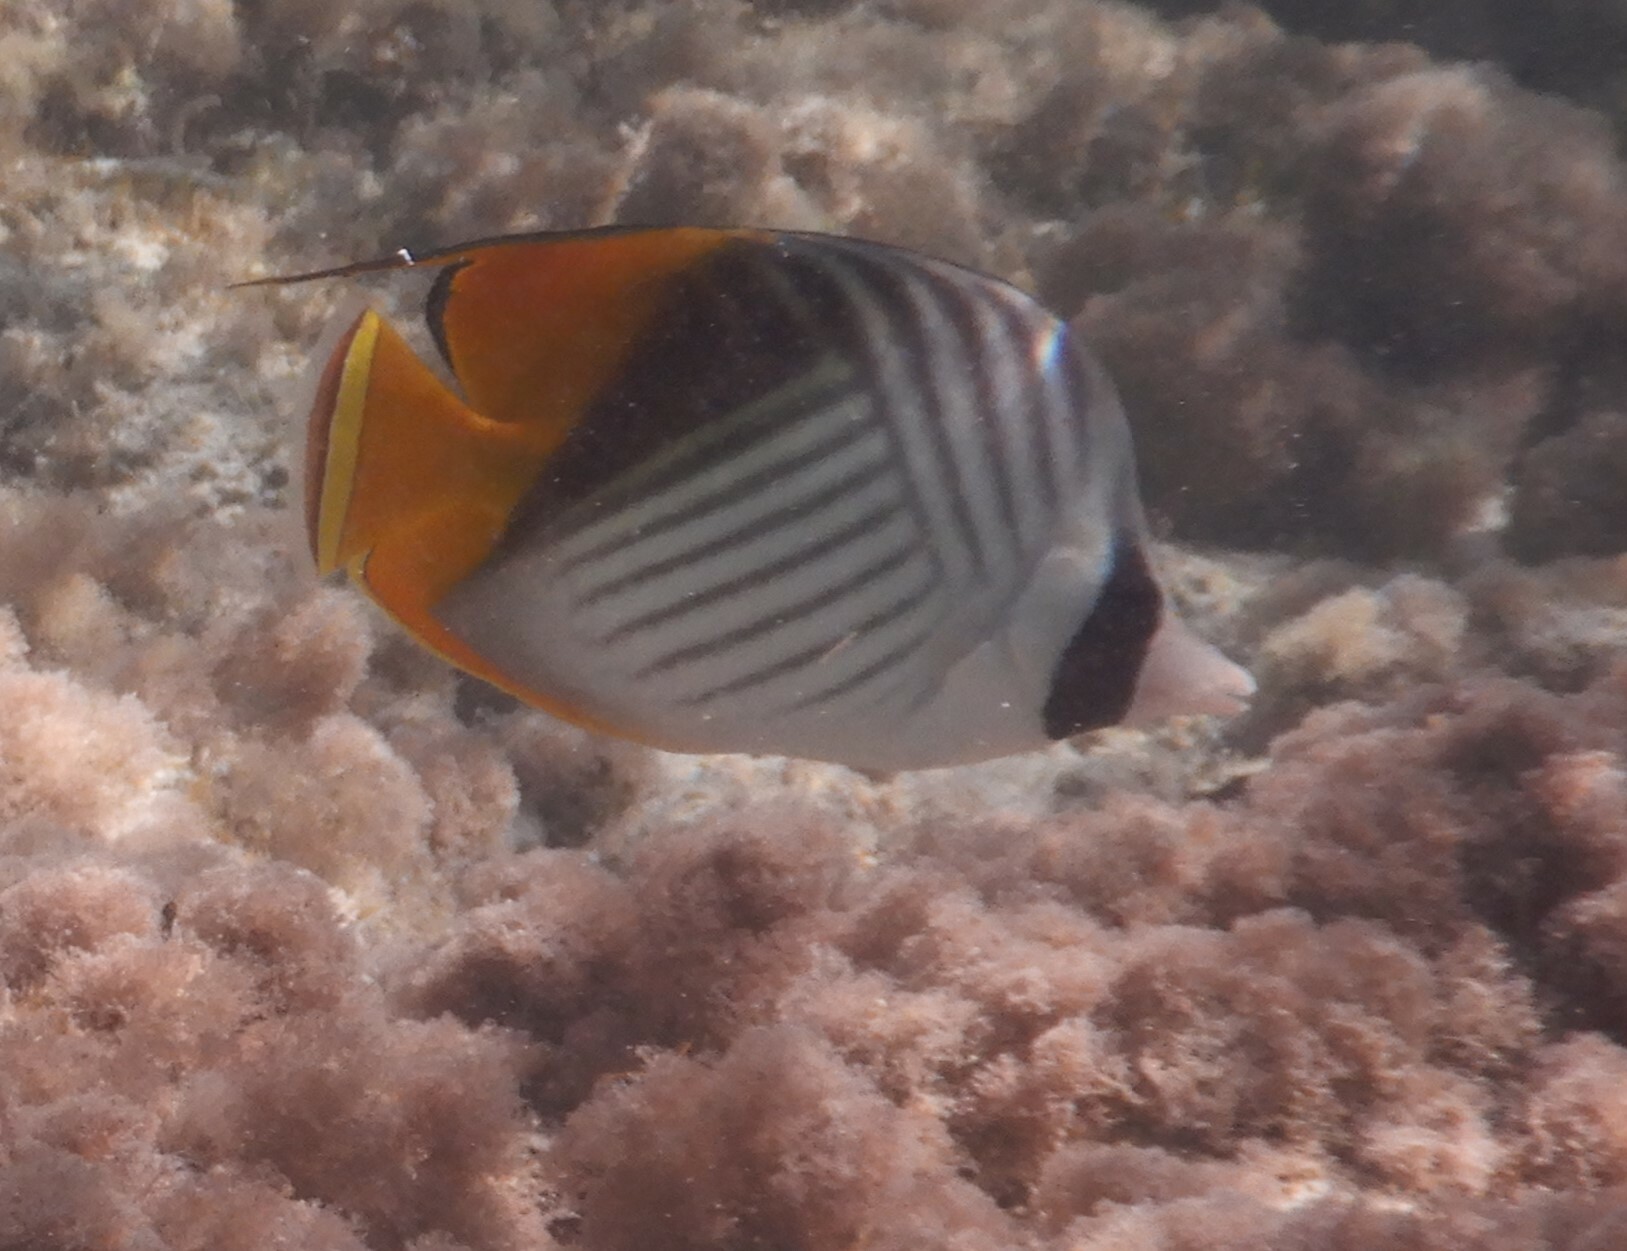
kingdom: Animalia
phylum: Chordata
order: Perciformes
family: Chaetodontidae
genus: Chaetodon
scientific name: Chaetodon auriga
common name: Threadfin butterflyfish
